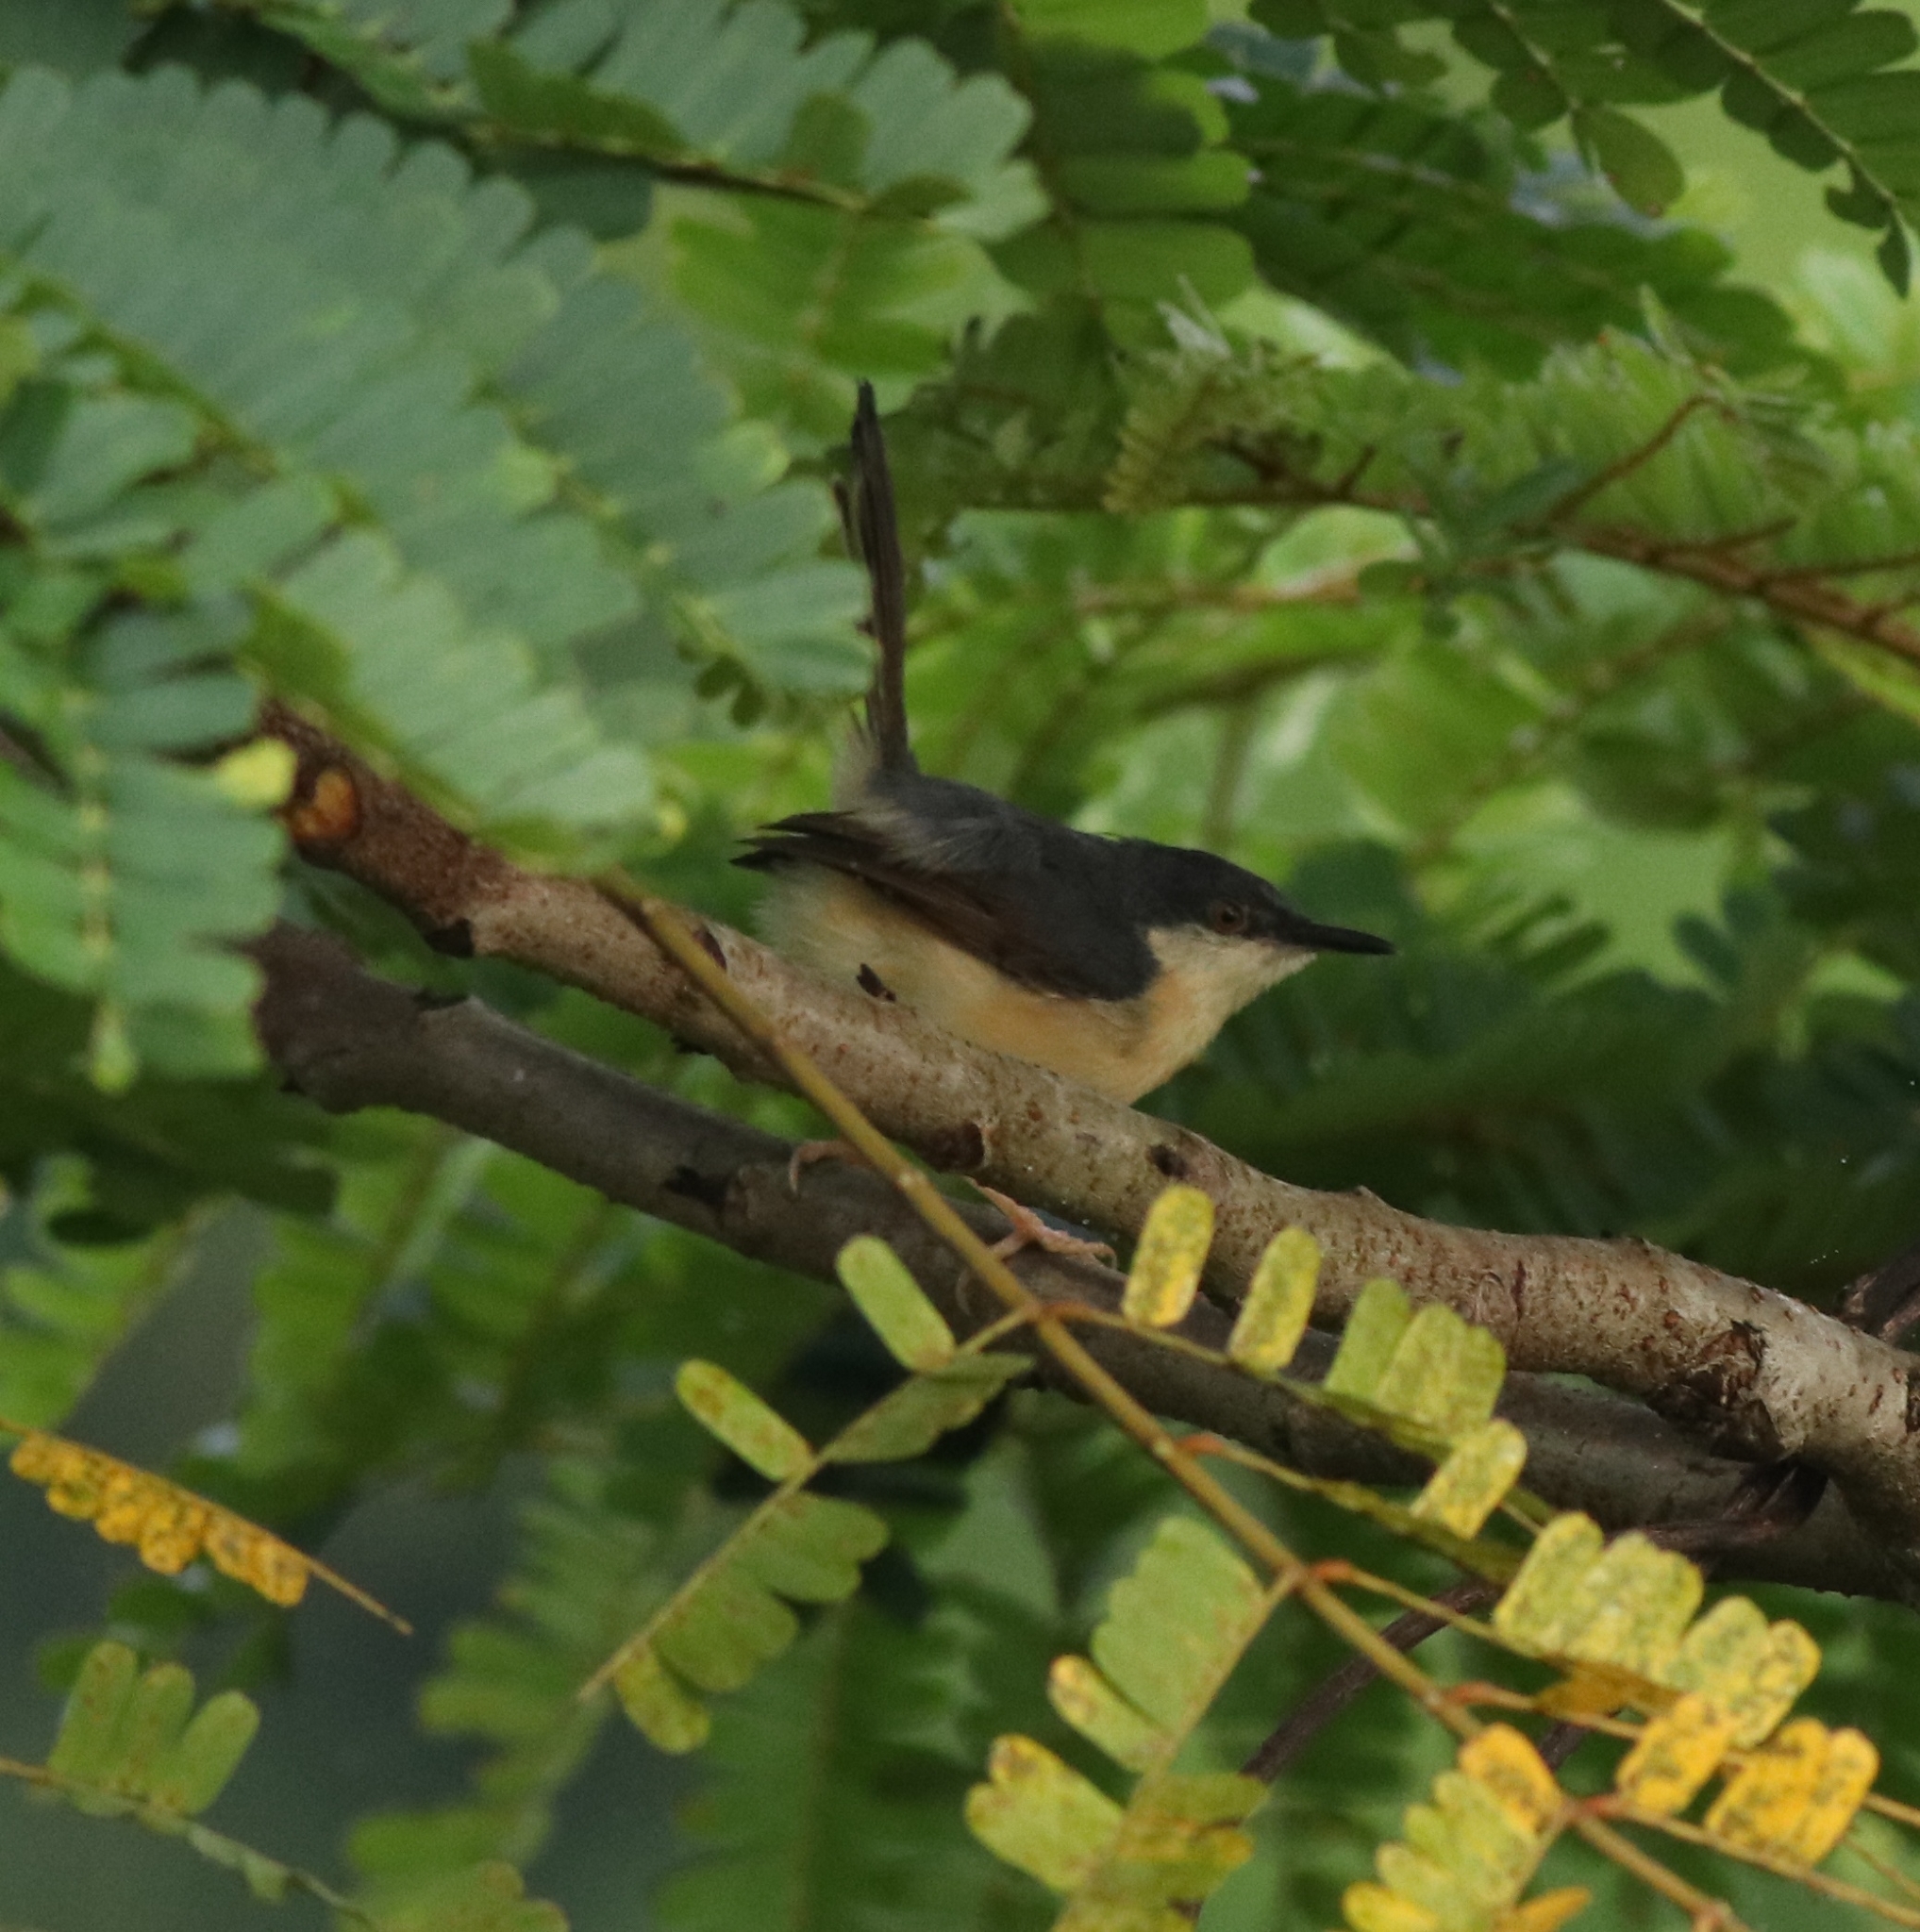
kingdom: Animalia
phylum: Chordata
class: Aves
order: Passeriformes
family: Cisticolidae
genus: Prinia
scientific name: Prinia socialis
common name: Ashy prinia
